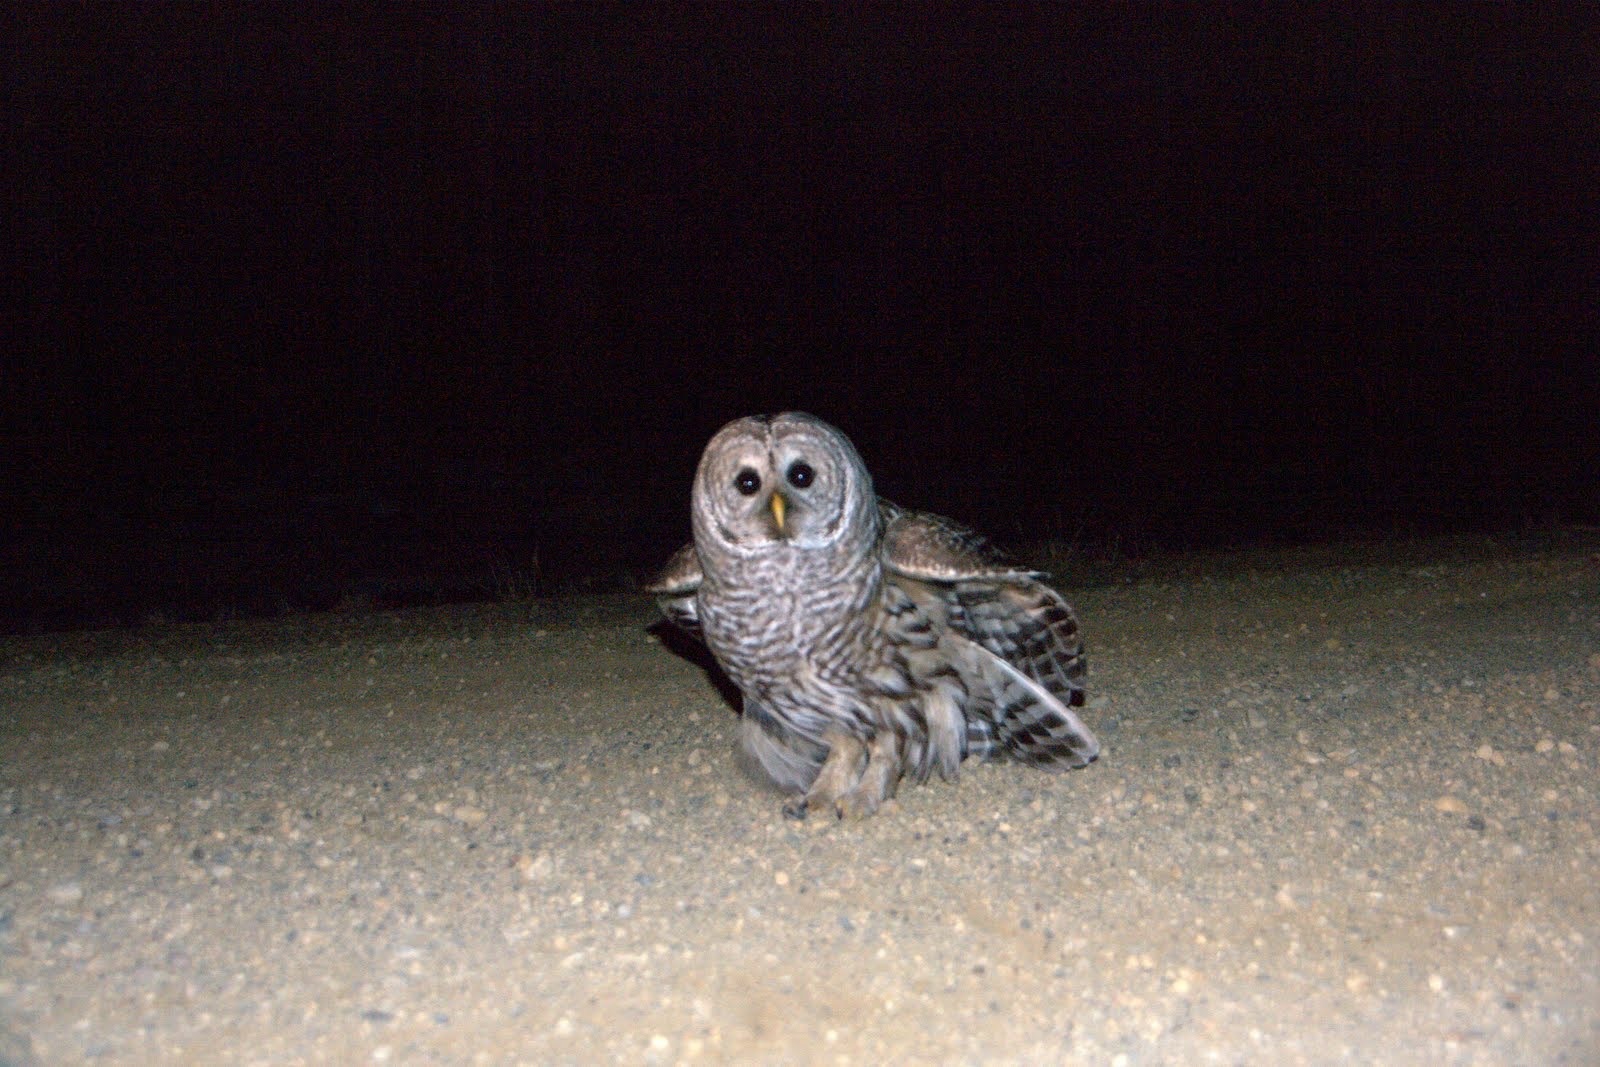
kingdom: Animalia
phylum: Chordata
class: Aves
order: Strigiformes
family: Strigidae
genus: Strix
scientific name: Strix varia
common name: Barred owl
